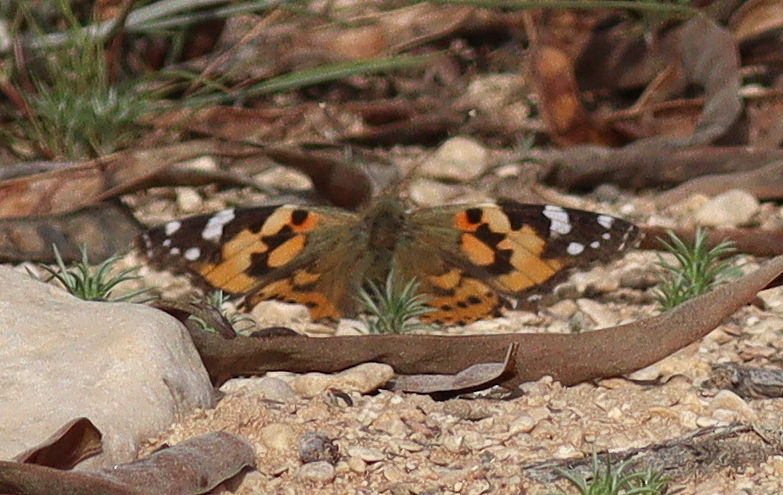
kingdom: Animalia
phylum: Arthropoda
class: Insecta
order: Lepidoptera
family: Nymphalidae
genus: Vanessa
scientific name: Vanessa cardui
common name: Painted lady
